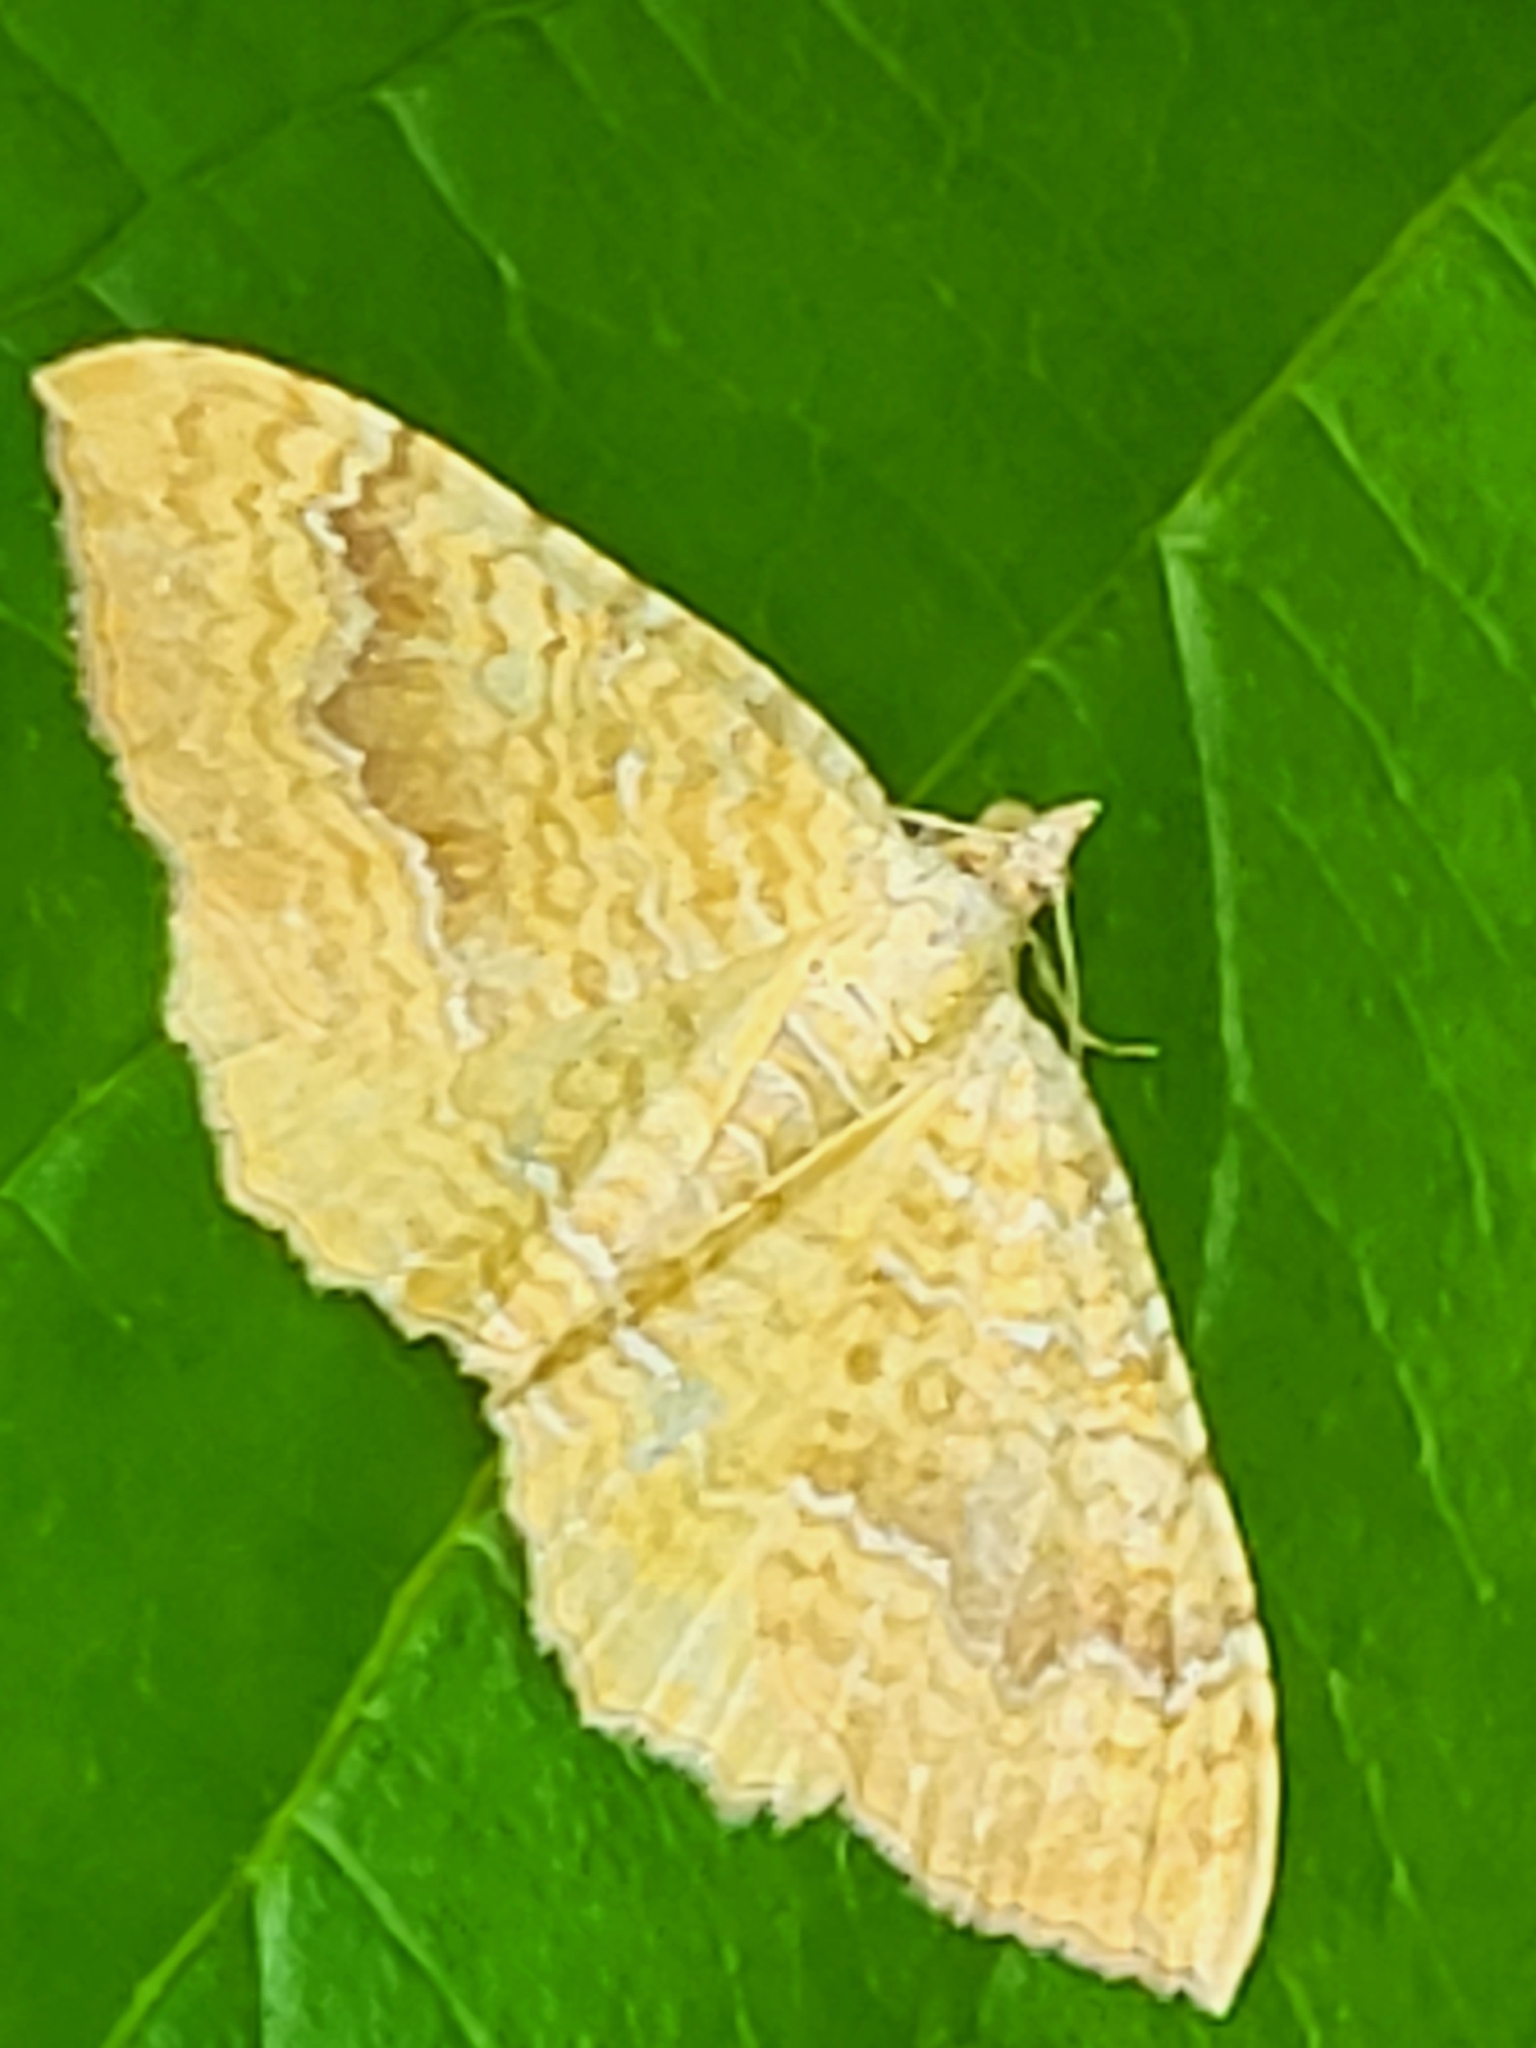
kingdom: Animalia
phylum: Arthropoda
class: Insecta
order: Lepidoptera
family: Geometridae
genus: Camptogramma
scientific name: Camptogramma bilineata
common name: Yellow shell
